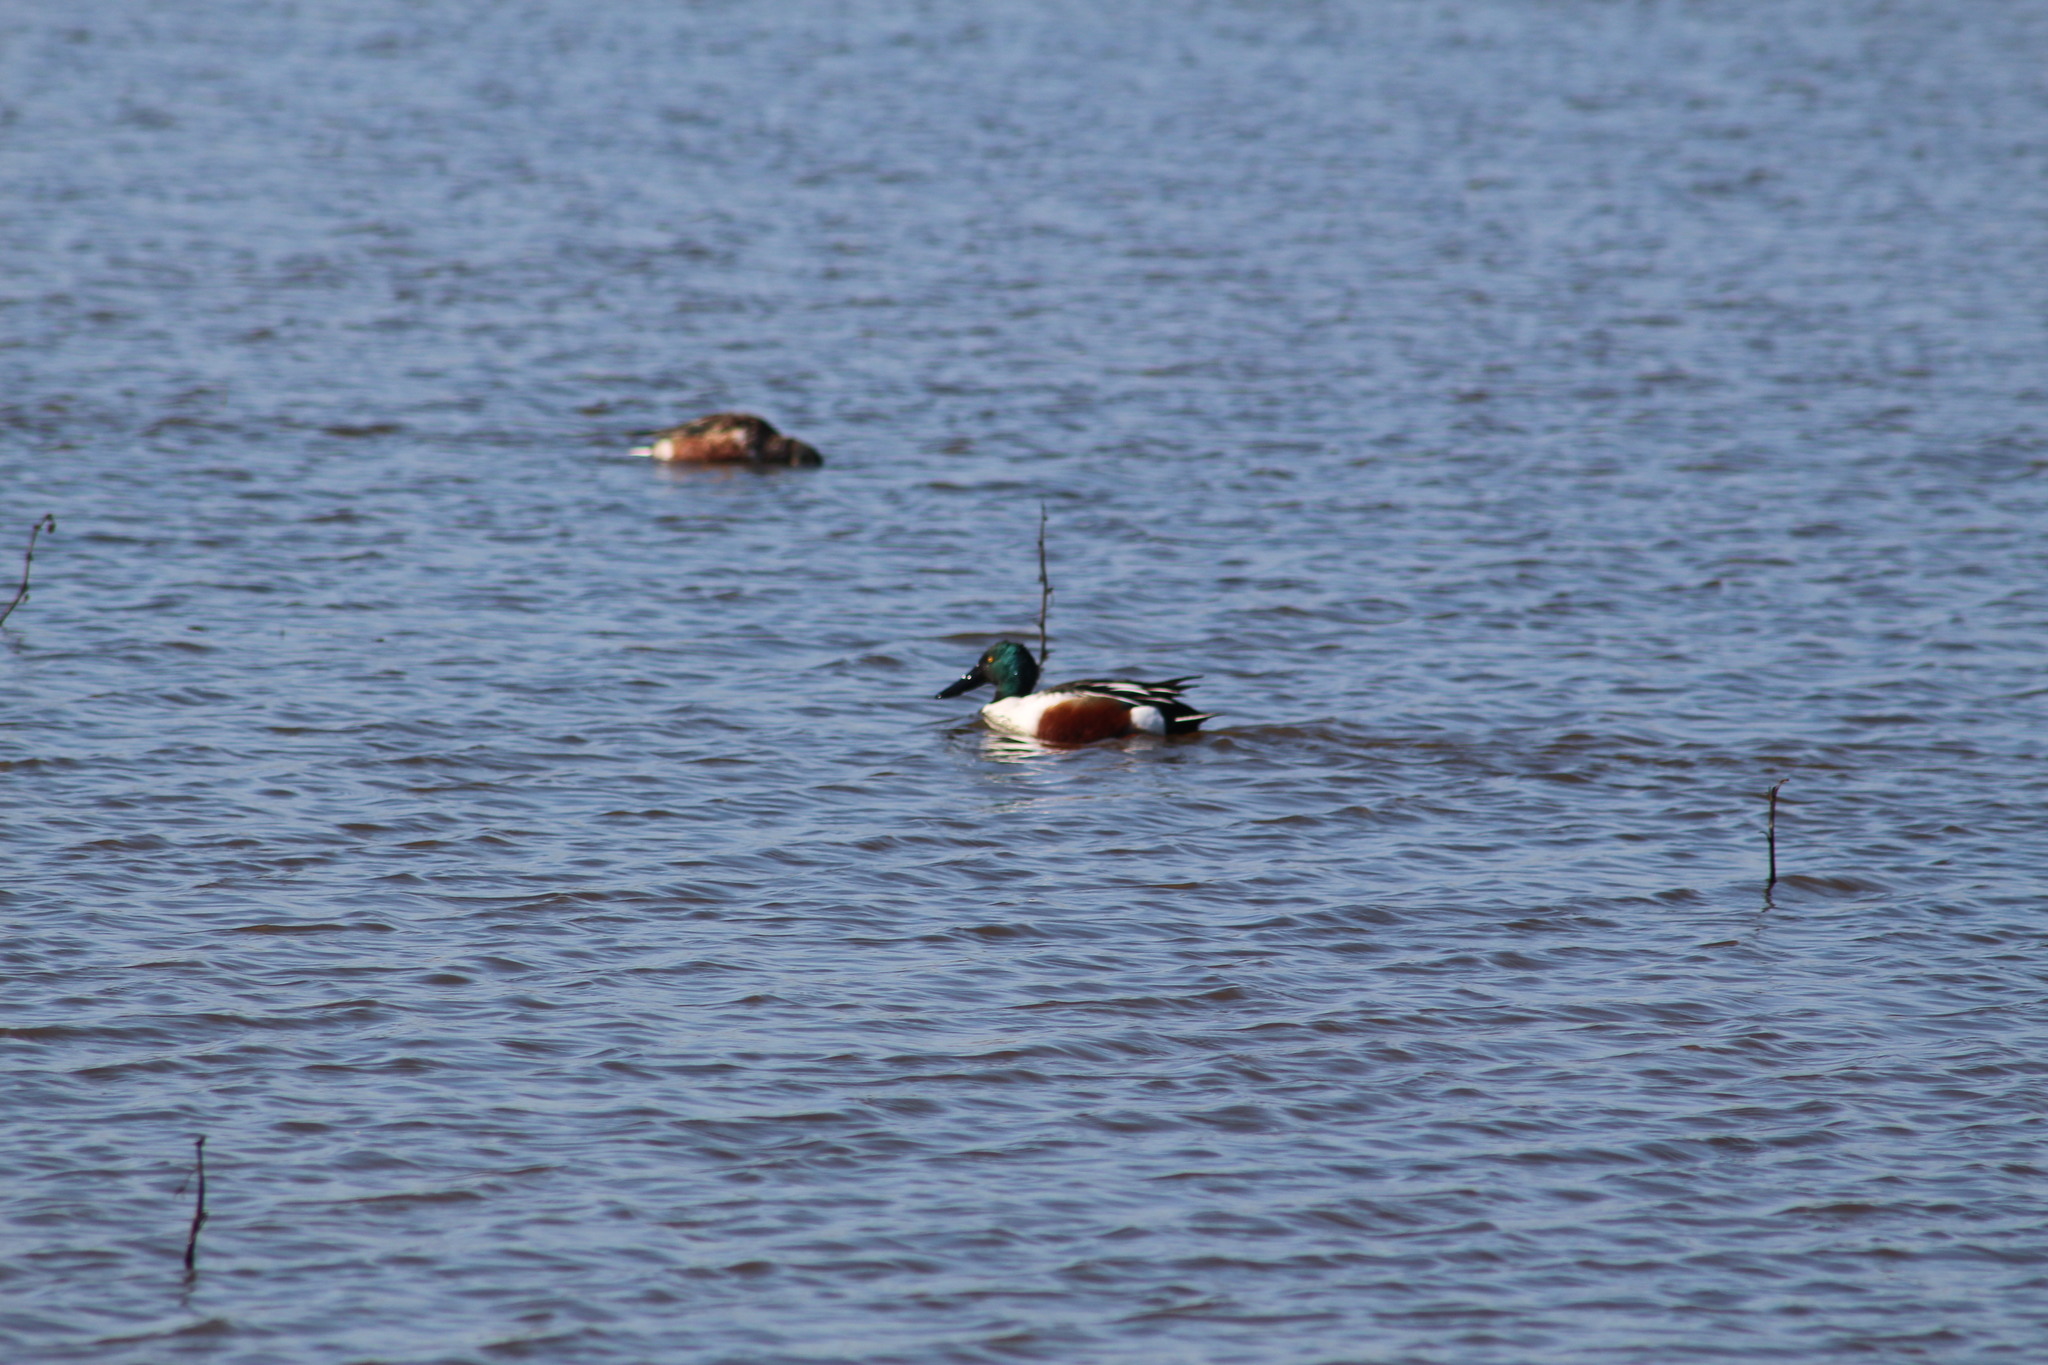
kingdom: Animalia
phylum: Chordata
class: Aves
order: Anseriformes
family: Anatidae
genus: Spatula
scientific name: Spatula clypeata
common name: Northern shoveler
